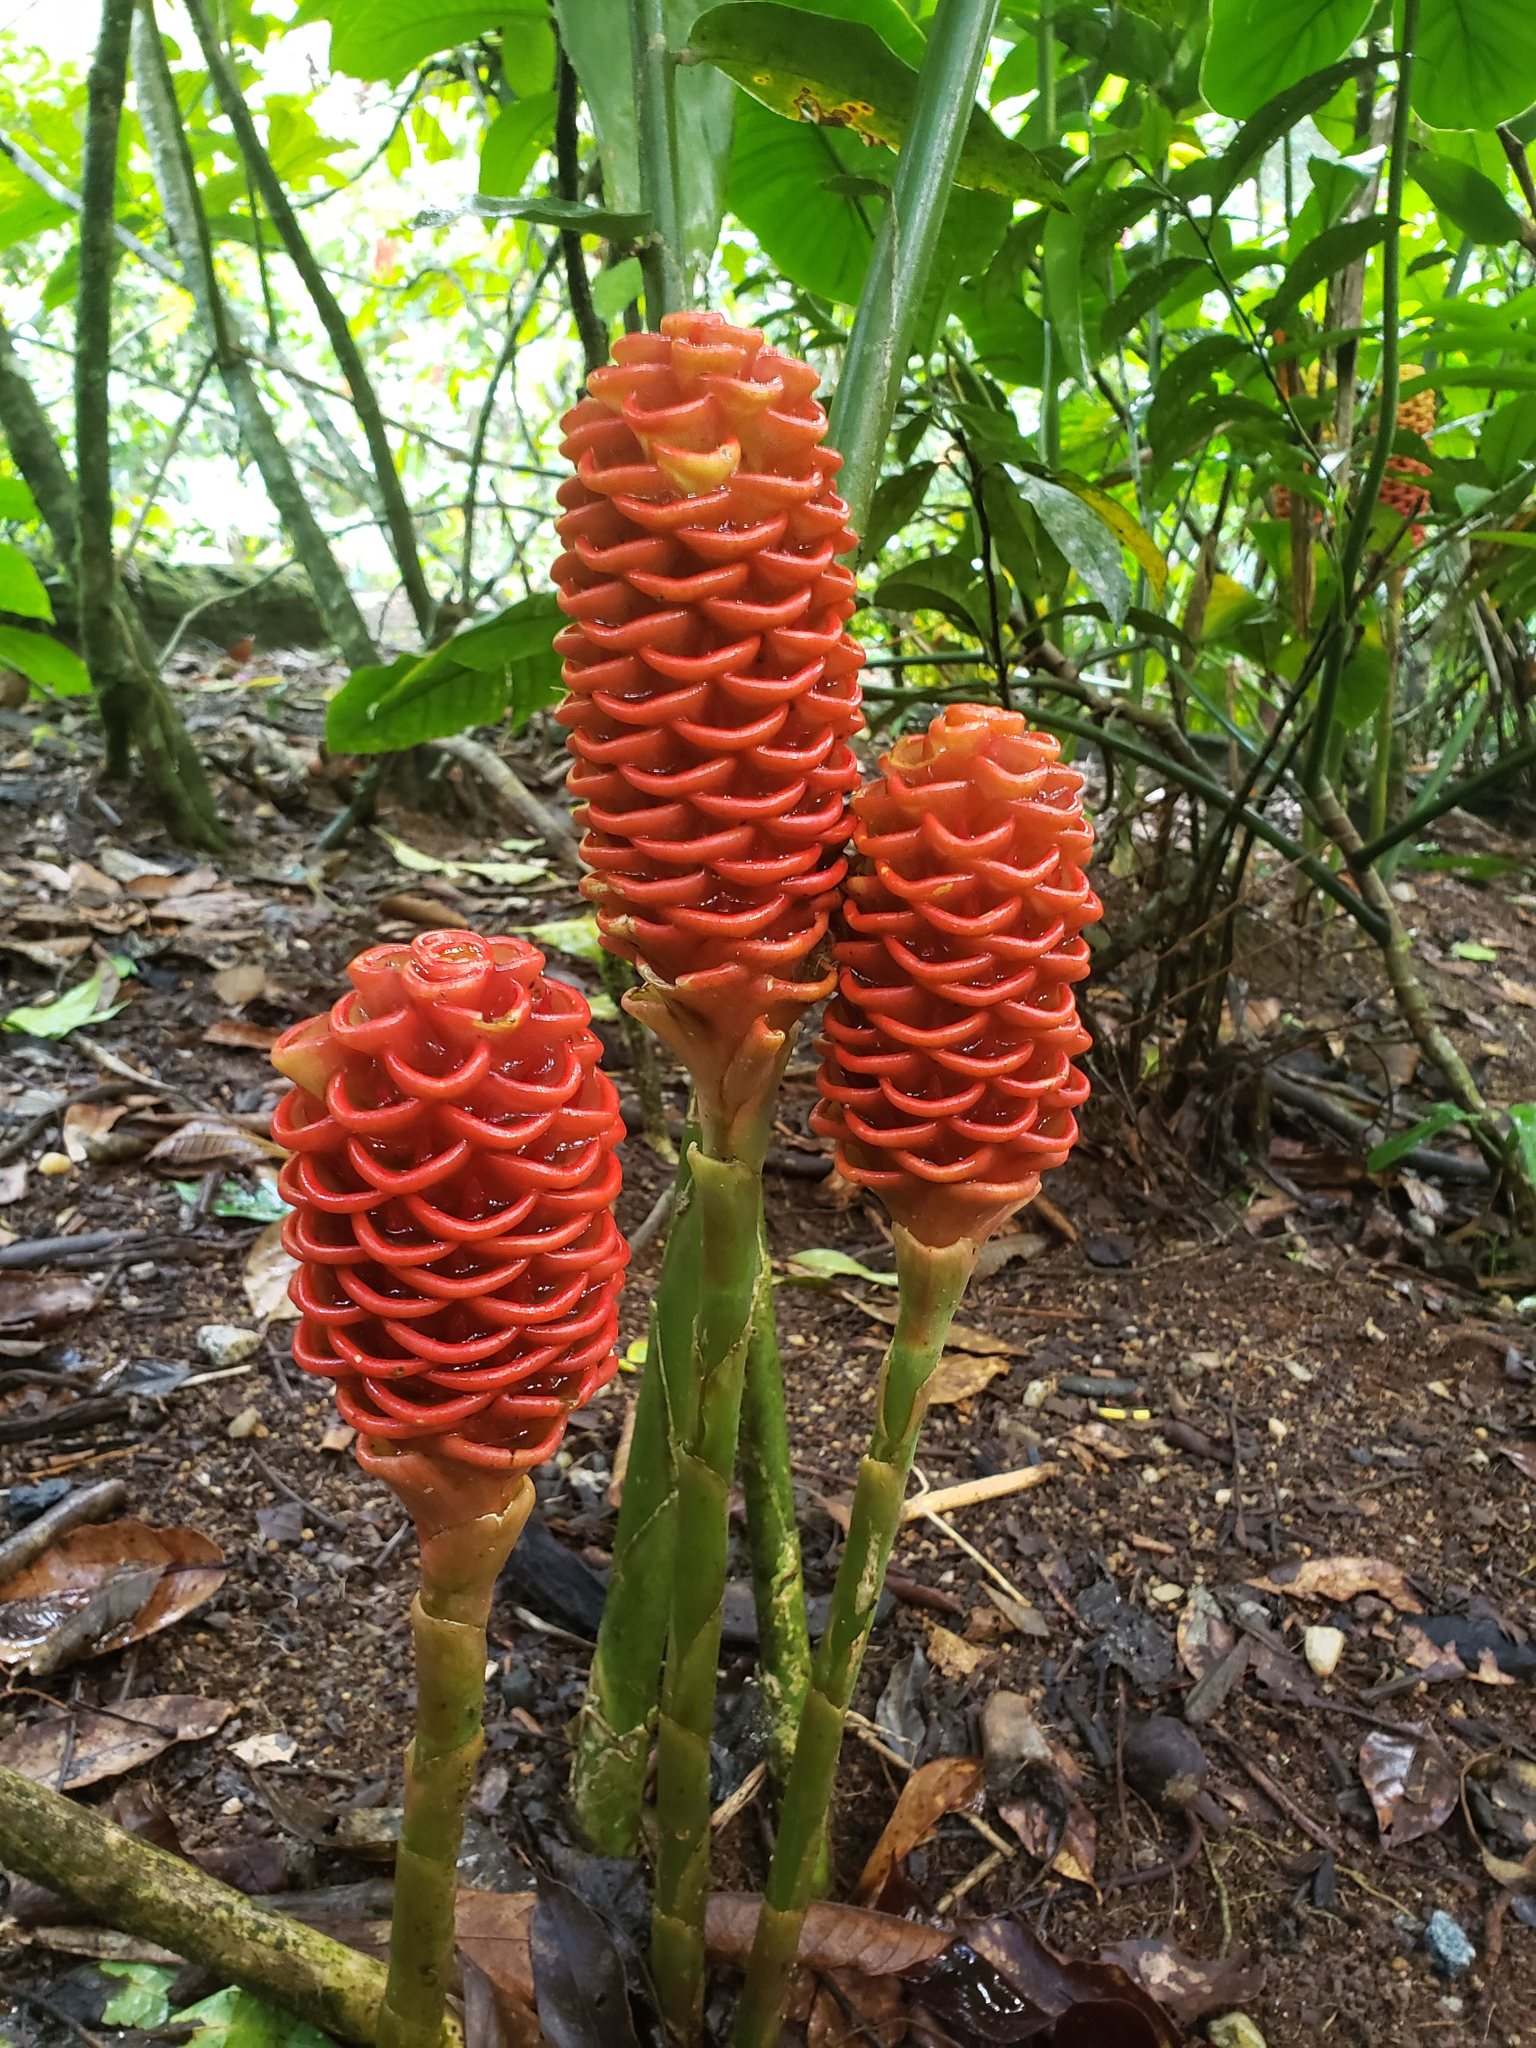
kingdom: Plantae
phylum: Tracheophyta
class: Liliopsida
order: Zingiberales
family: Zingiberaceae
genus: Zingiber
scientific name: Zingiber spectabile
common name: Beehive ginger
